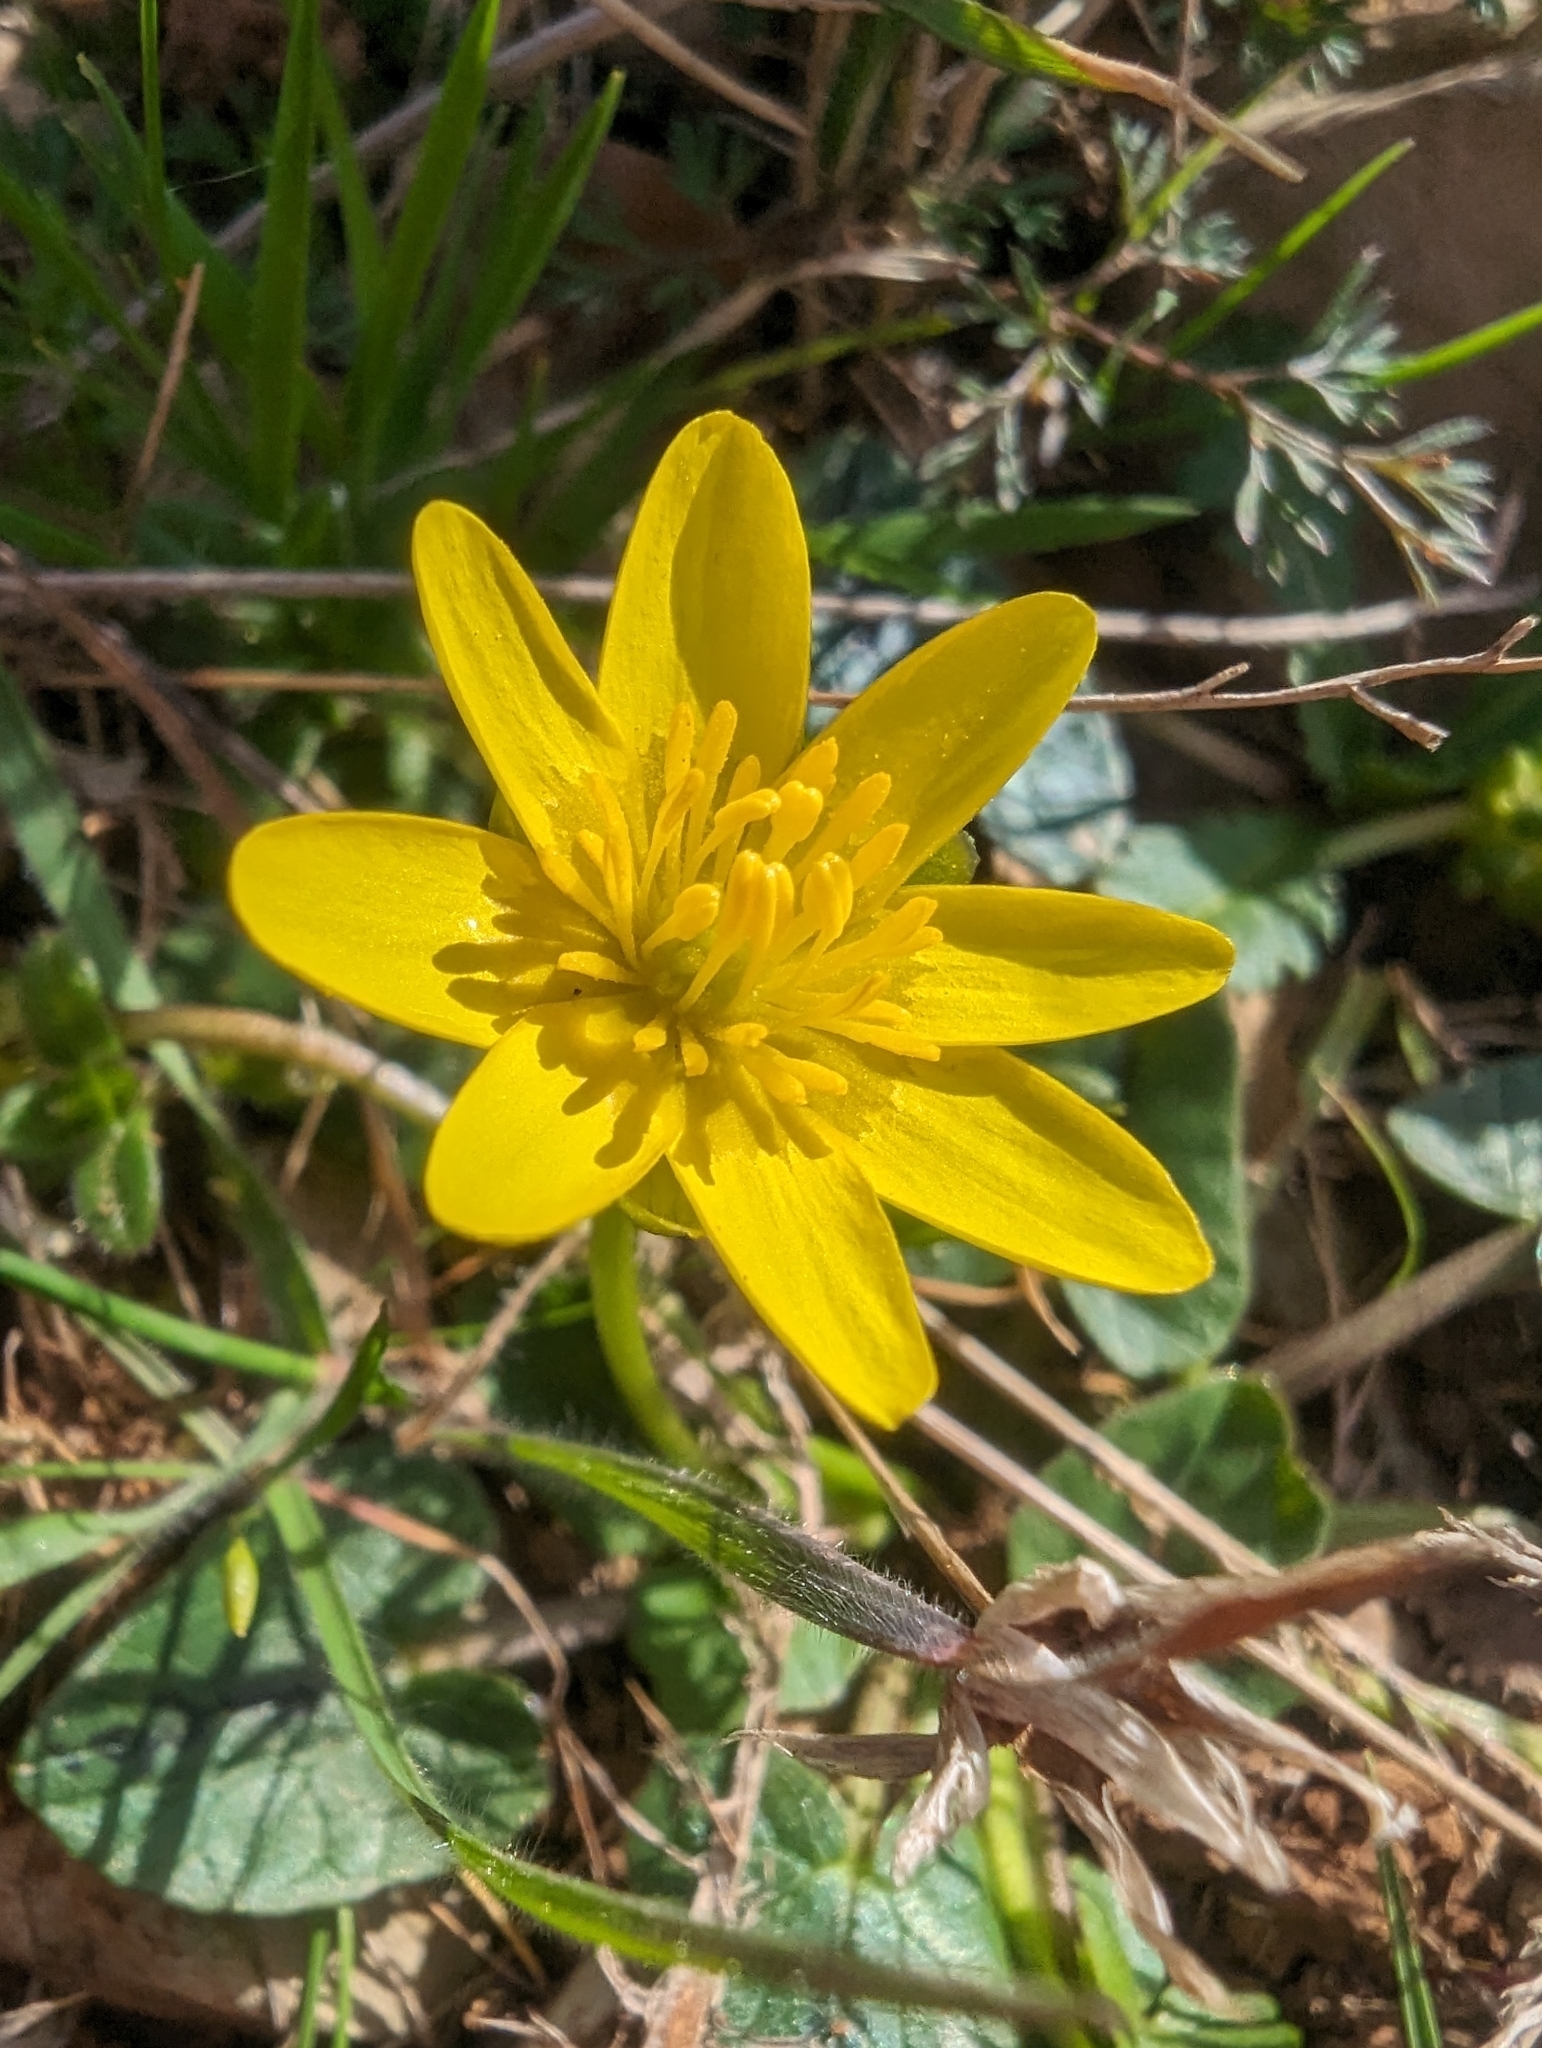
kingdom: Plantae
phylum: Tracheophyta
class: Magnoliopsida
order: Ranunculales
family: Ranunculaceae
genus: Ficaria
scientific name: Ficaria verna
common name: Lesser celandine
